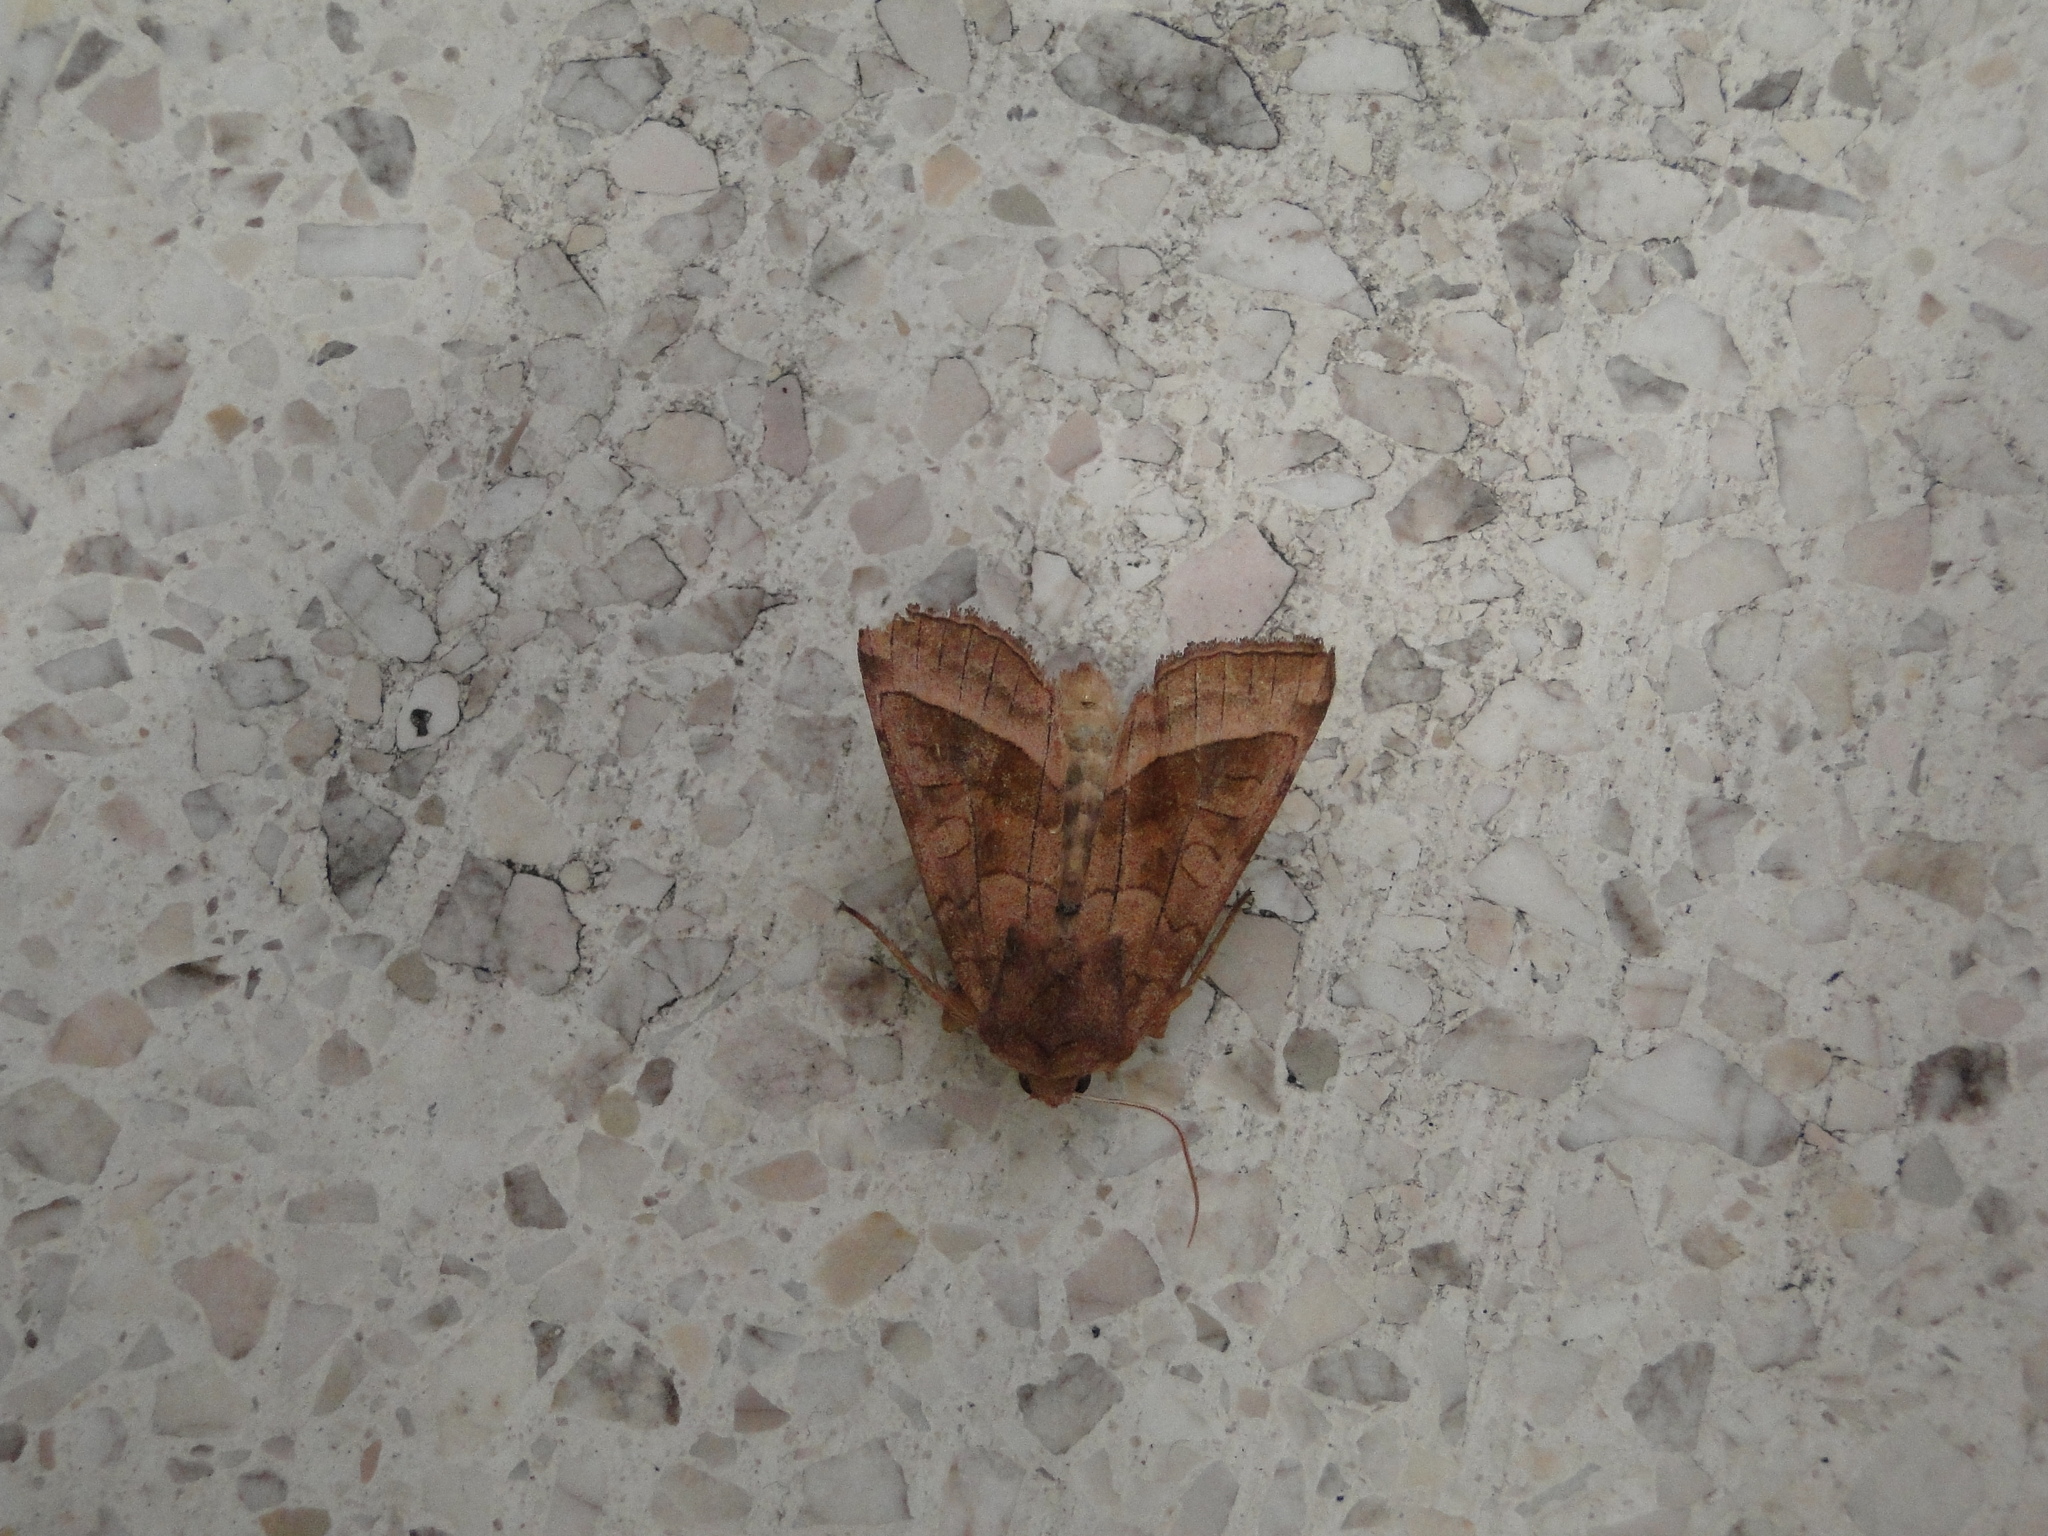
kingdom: Animalia
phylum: Arthropoda
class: Insecta
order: Lepidoptera
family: Noctuidae
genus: Hydraecia
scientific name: Hydraecia micacea
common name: Rosy rustic
